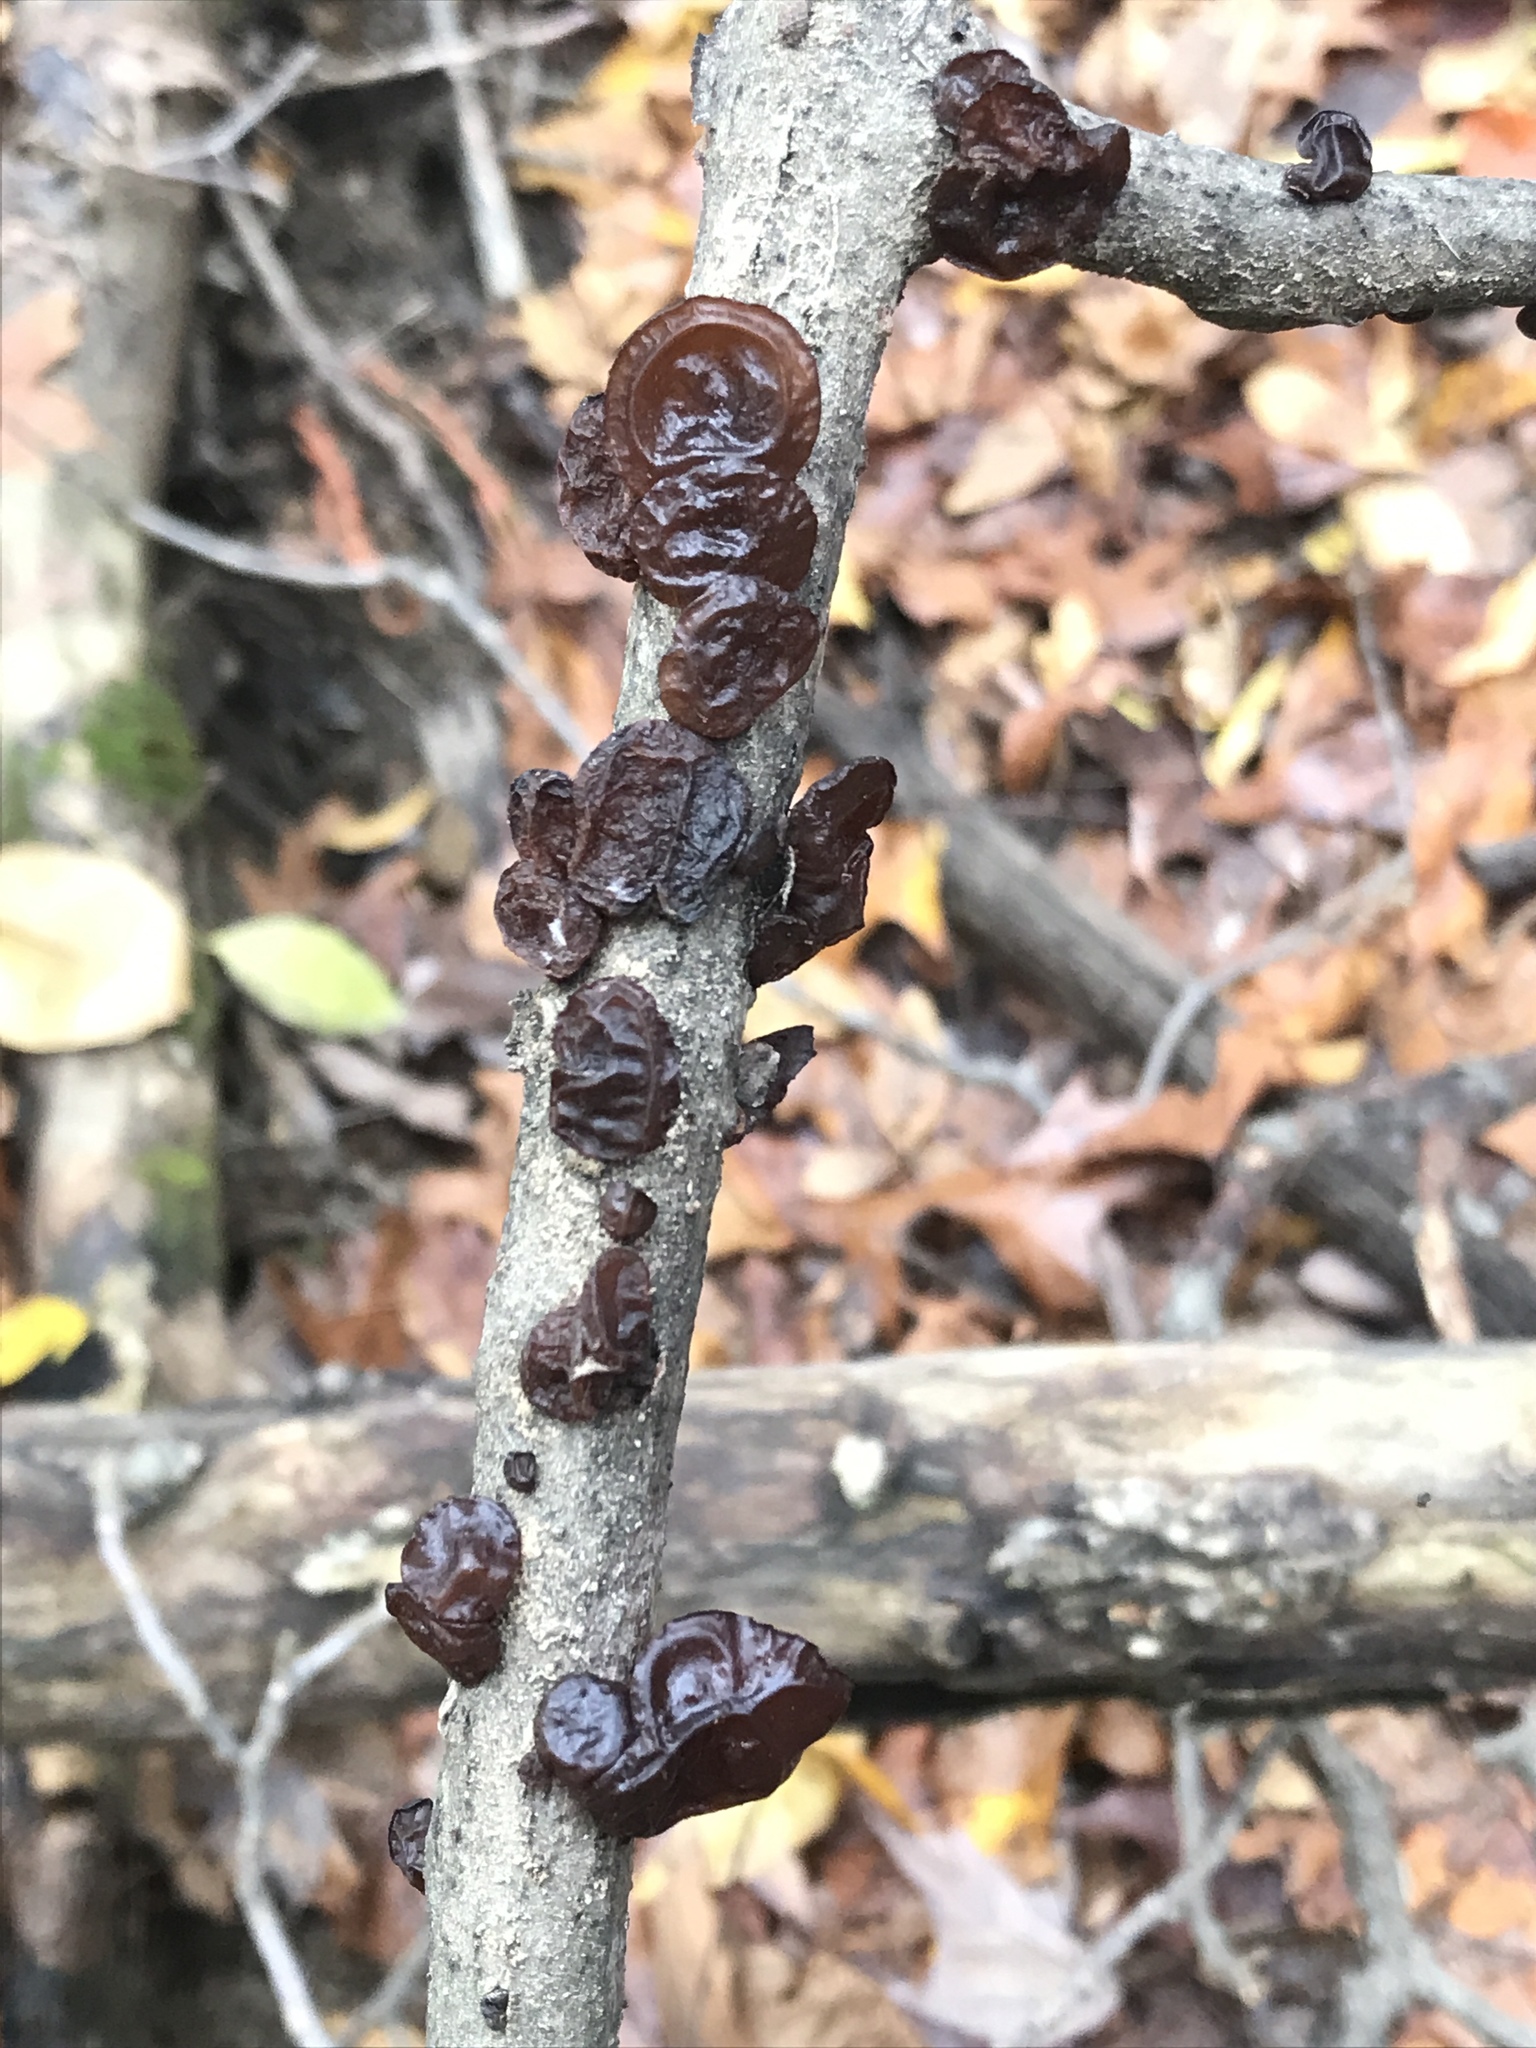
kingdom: Fungi
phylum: Basidiomycota
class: Agaricomycetes
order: Auriculariales
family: Auriculariaceae
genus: Exidia
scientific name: Exidia
